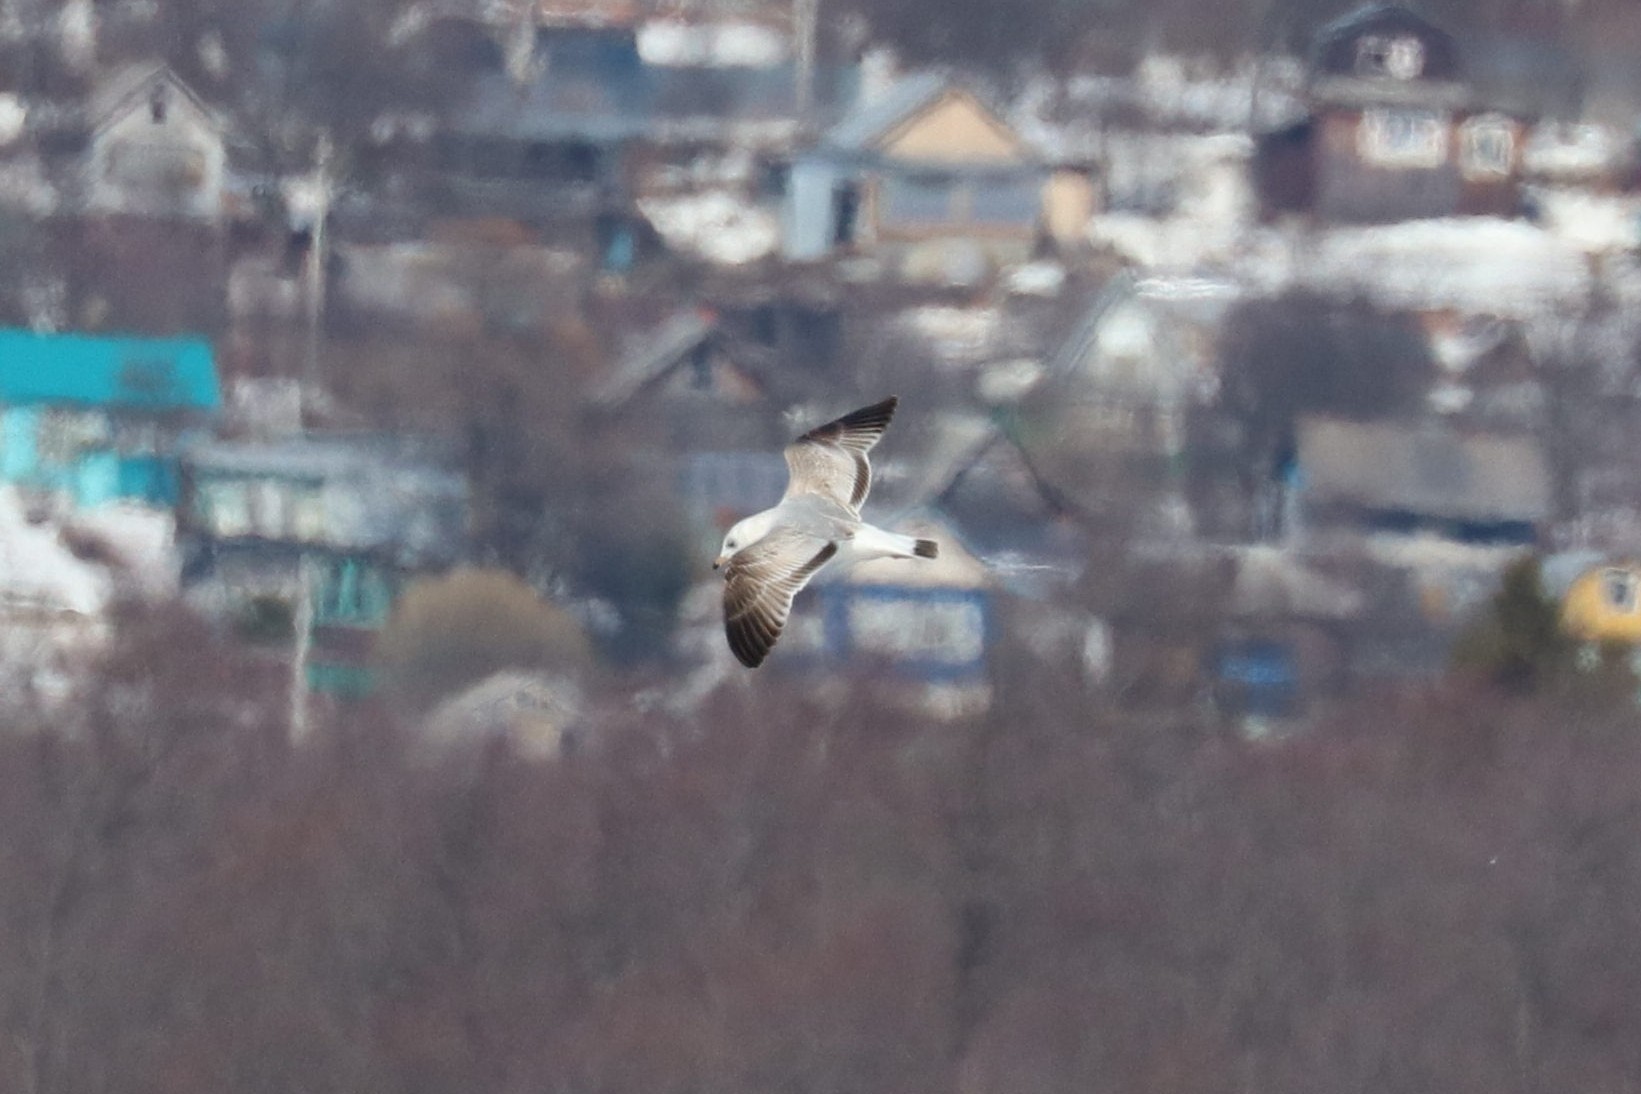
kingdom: Animalia
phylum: Chordata
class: Aves
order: Charadriiformes
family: Laridae
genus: Larus
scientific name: Larus canus
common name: Mew gull
